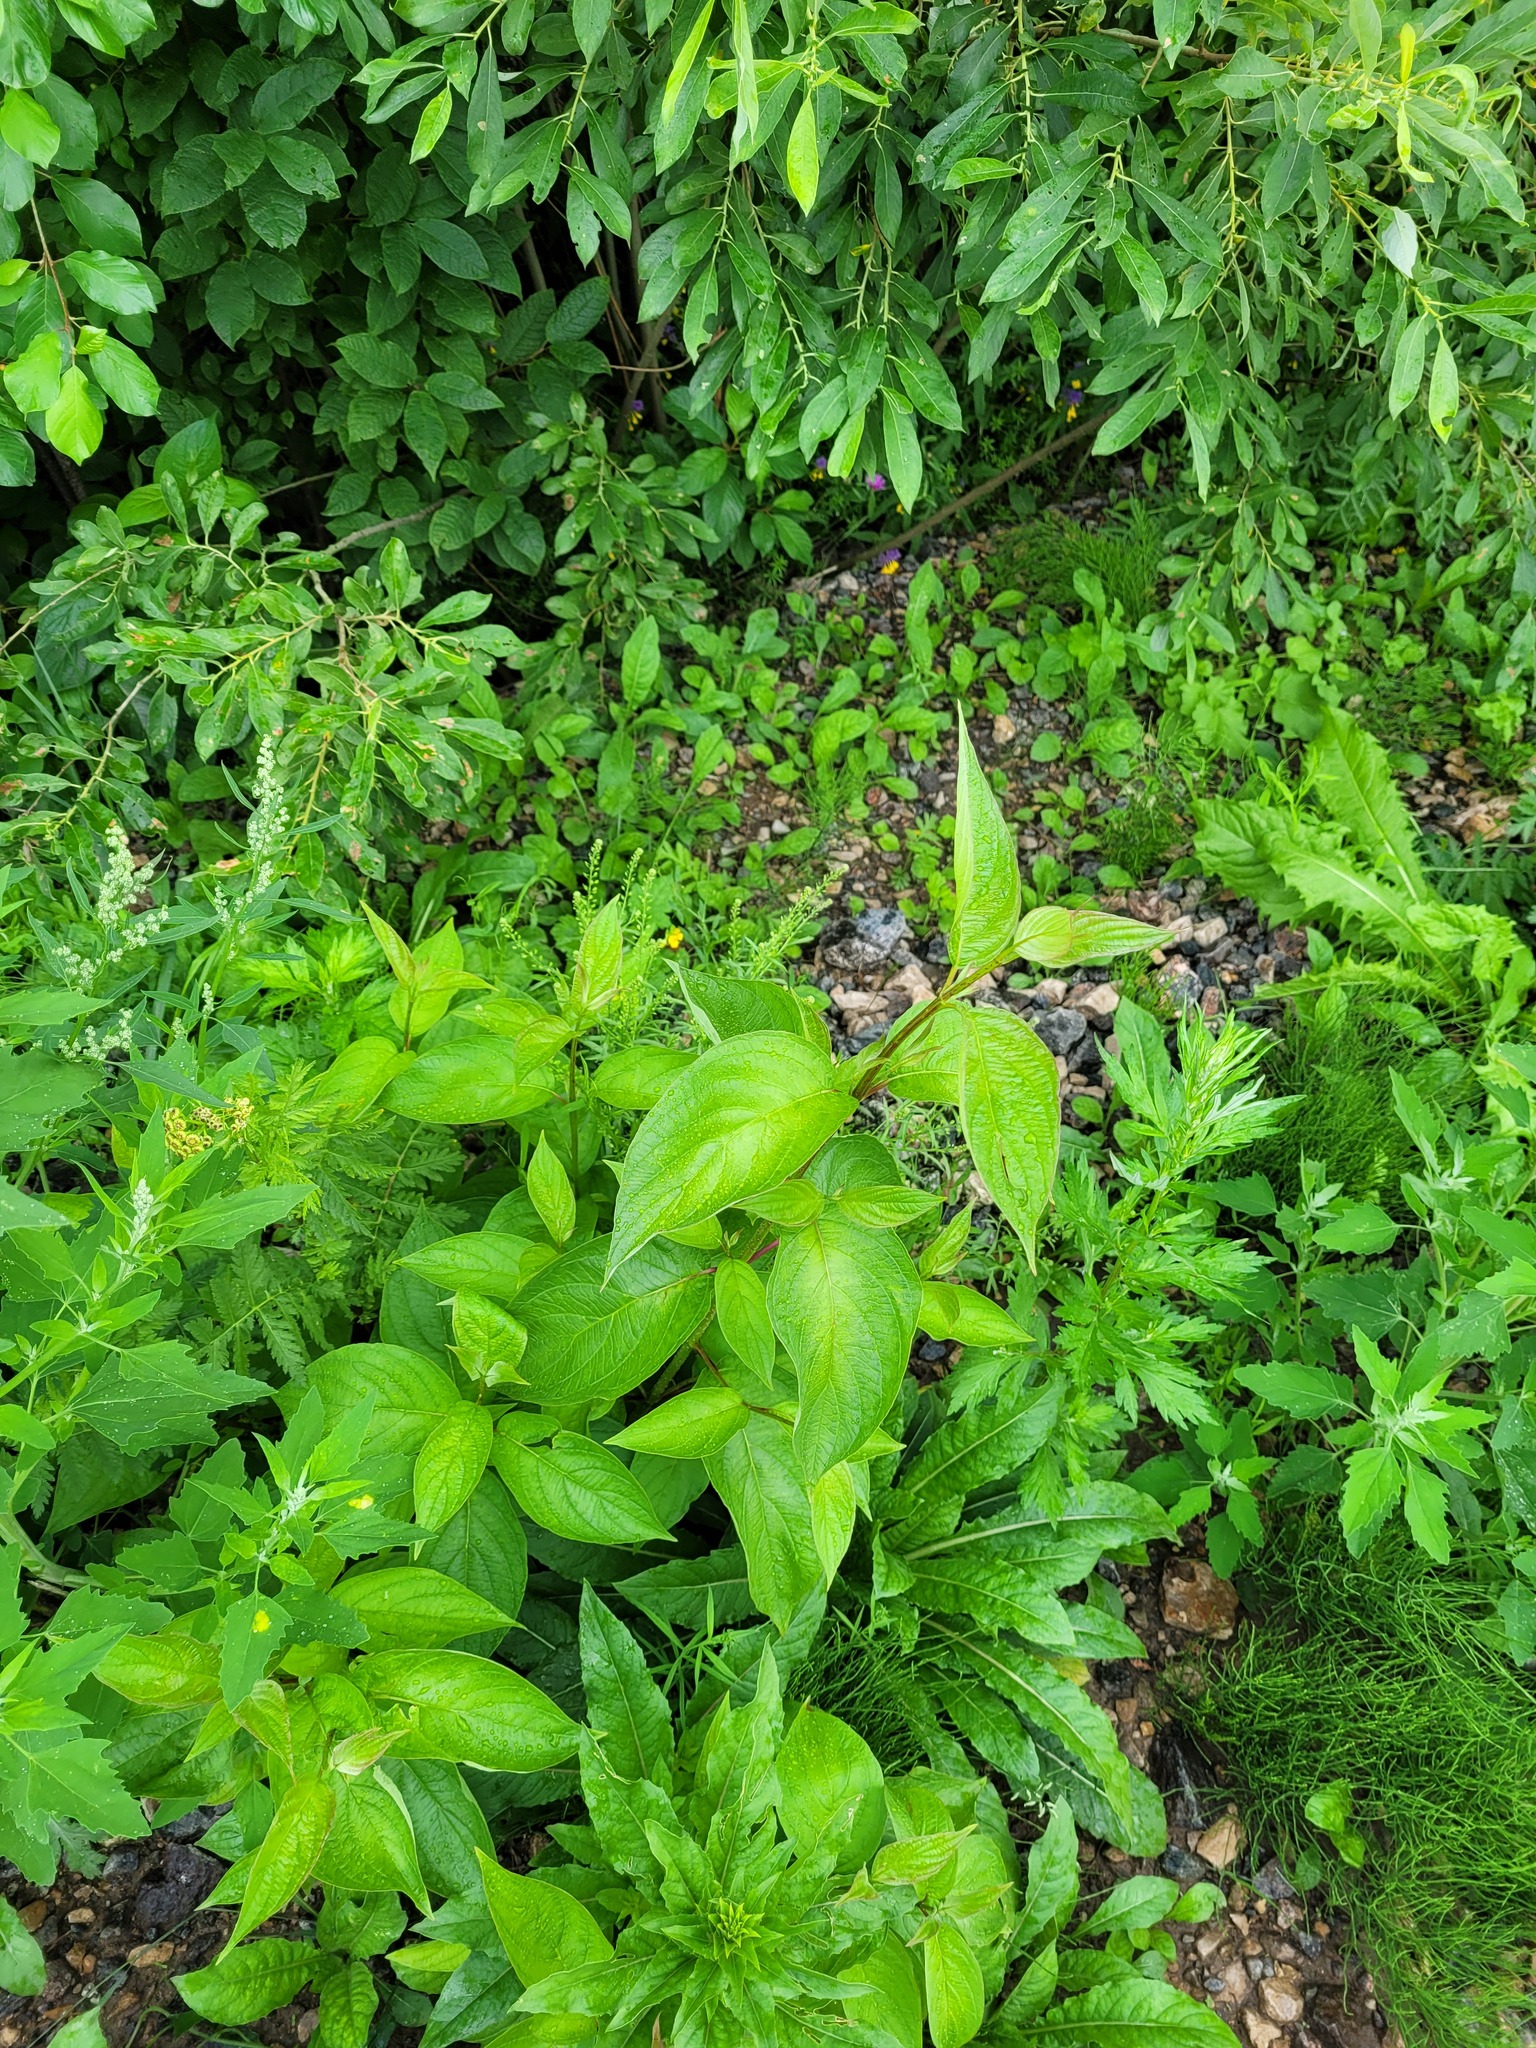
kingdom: Plantae
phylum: Tracheophyta
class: Magnoliopsida
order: Cornales
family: Cornaceae
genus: Cornus
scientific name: Cornus alba
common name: White dogwood
